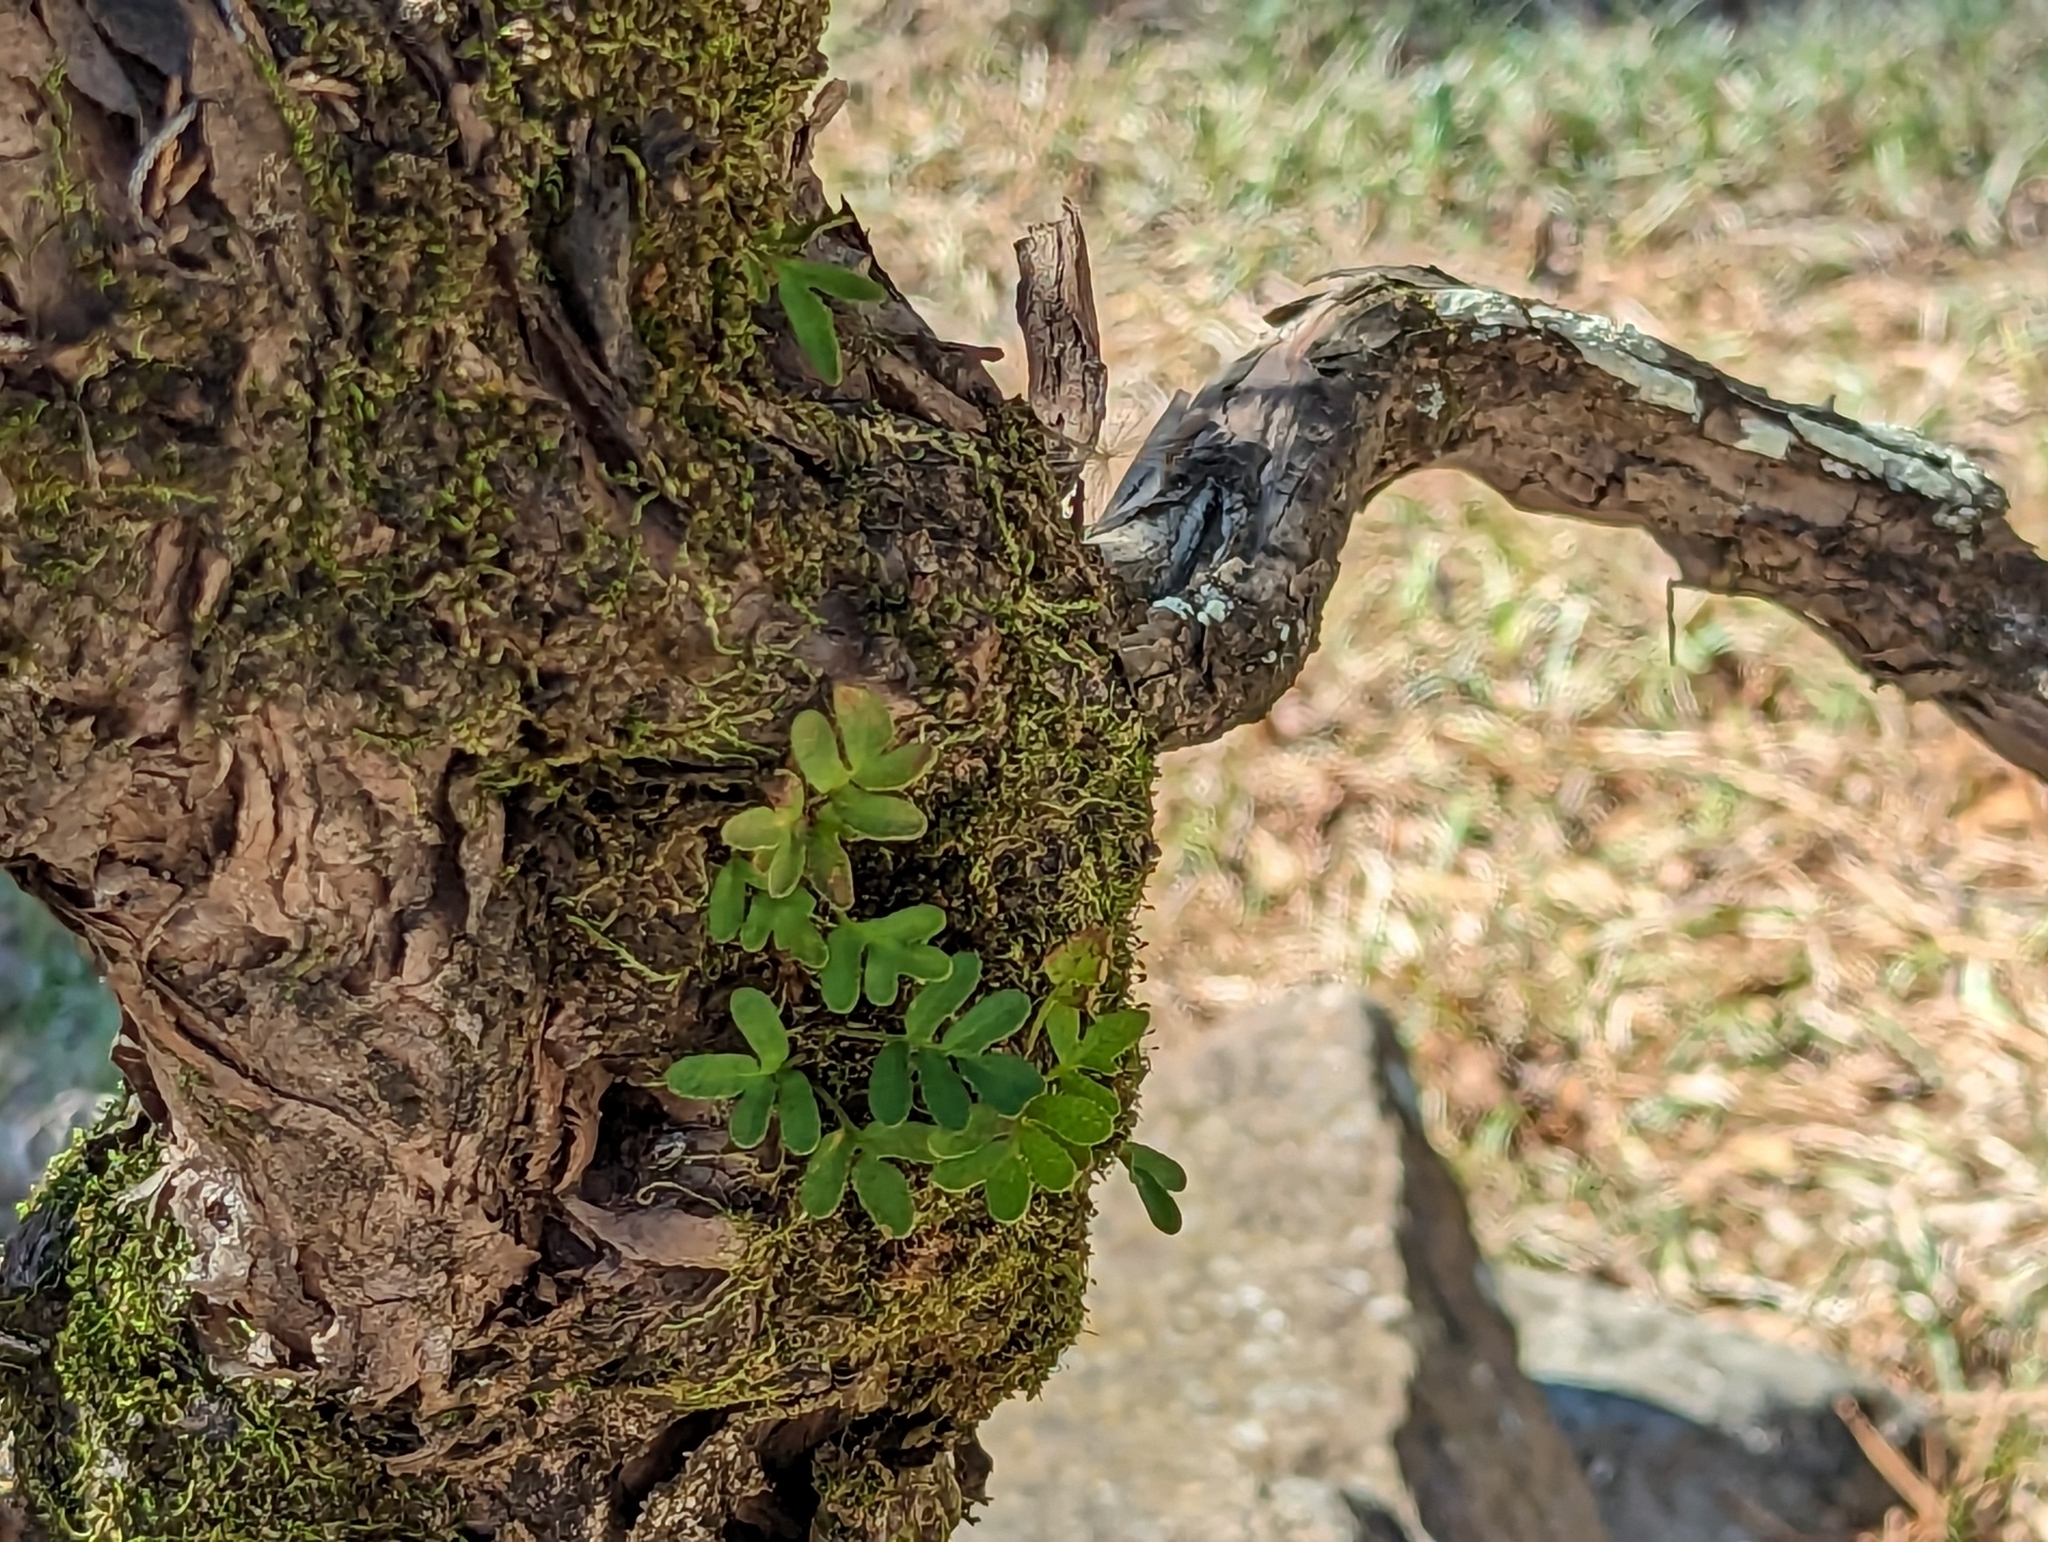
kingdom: Plantae
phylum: Tracheophyta
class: Polypodiopsida
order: Polypodiales
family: Polypodiaceae
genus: Pleopeltis
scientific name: Pleopeltis michauxiana
